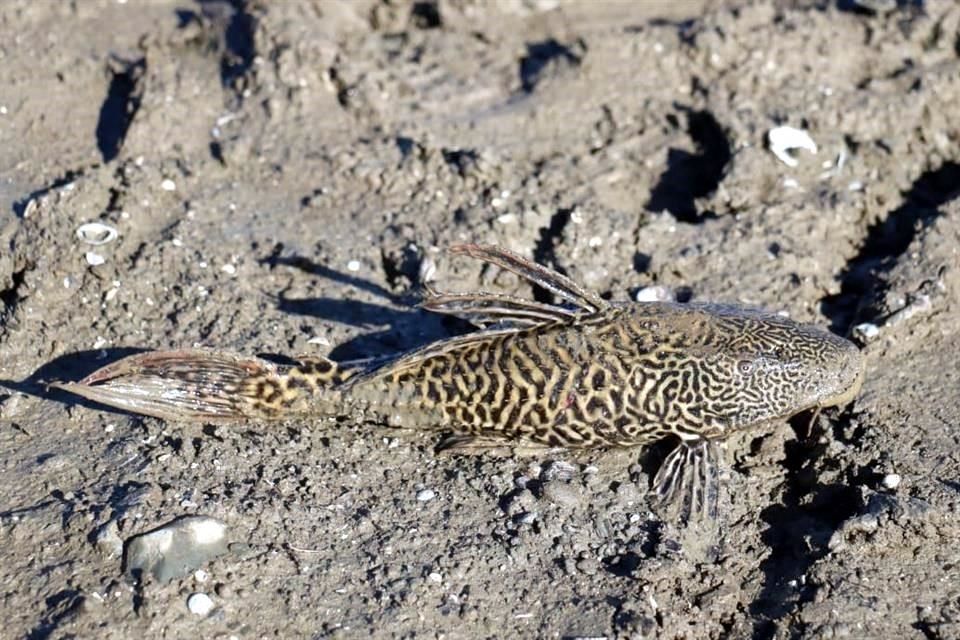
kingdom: Animalia
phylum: Chordata
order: Siluriformes
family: Loricariidae
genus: Pterygoplichthys
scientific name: Pterygoplichthys
